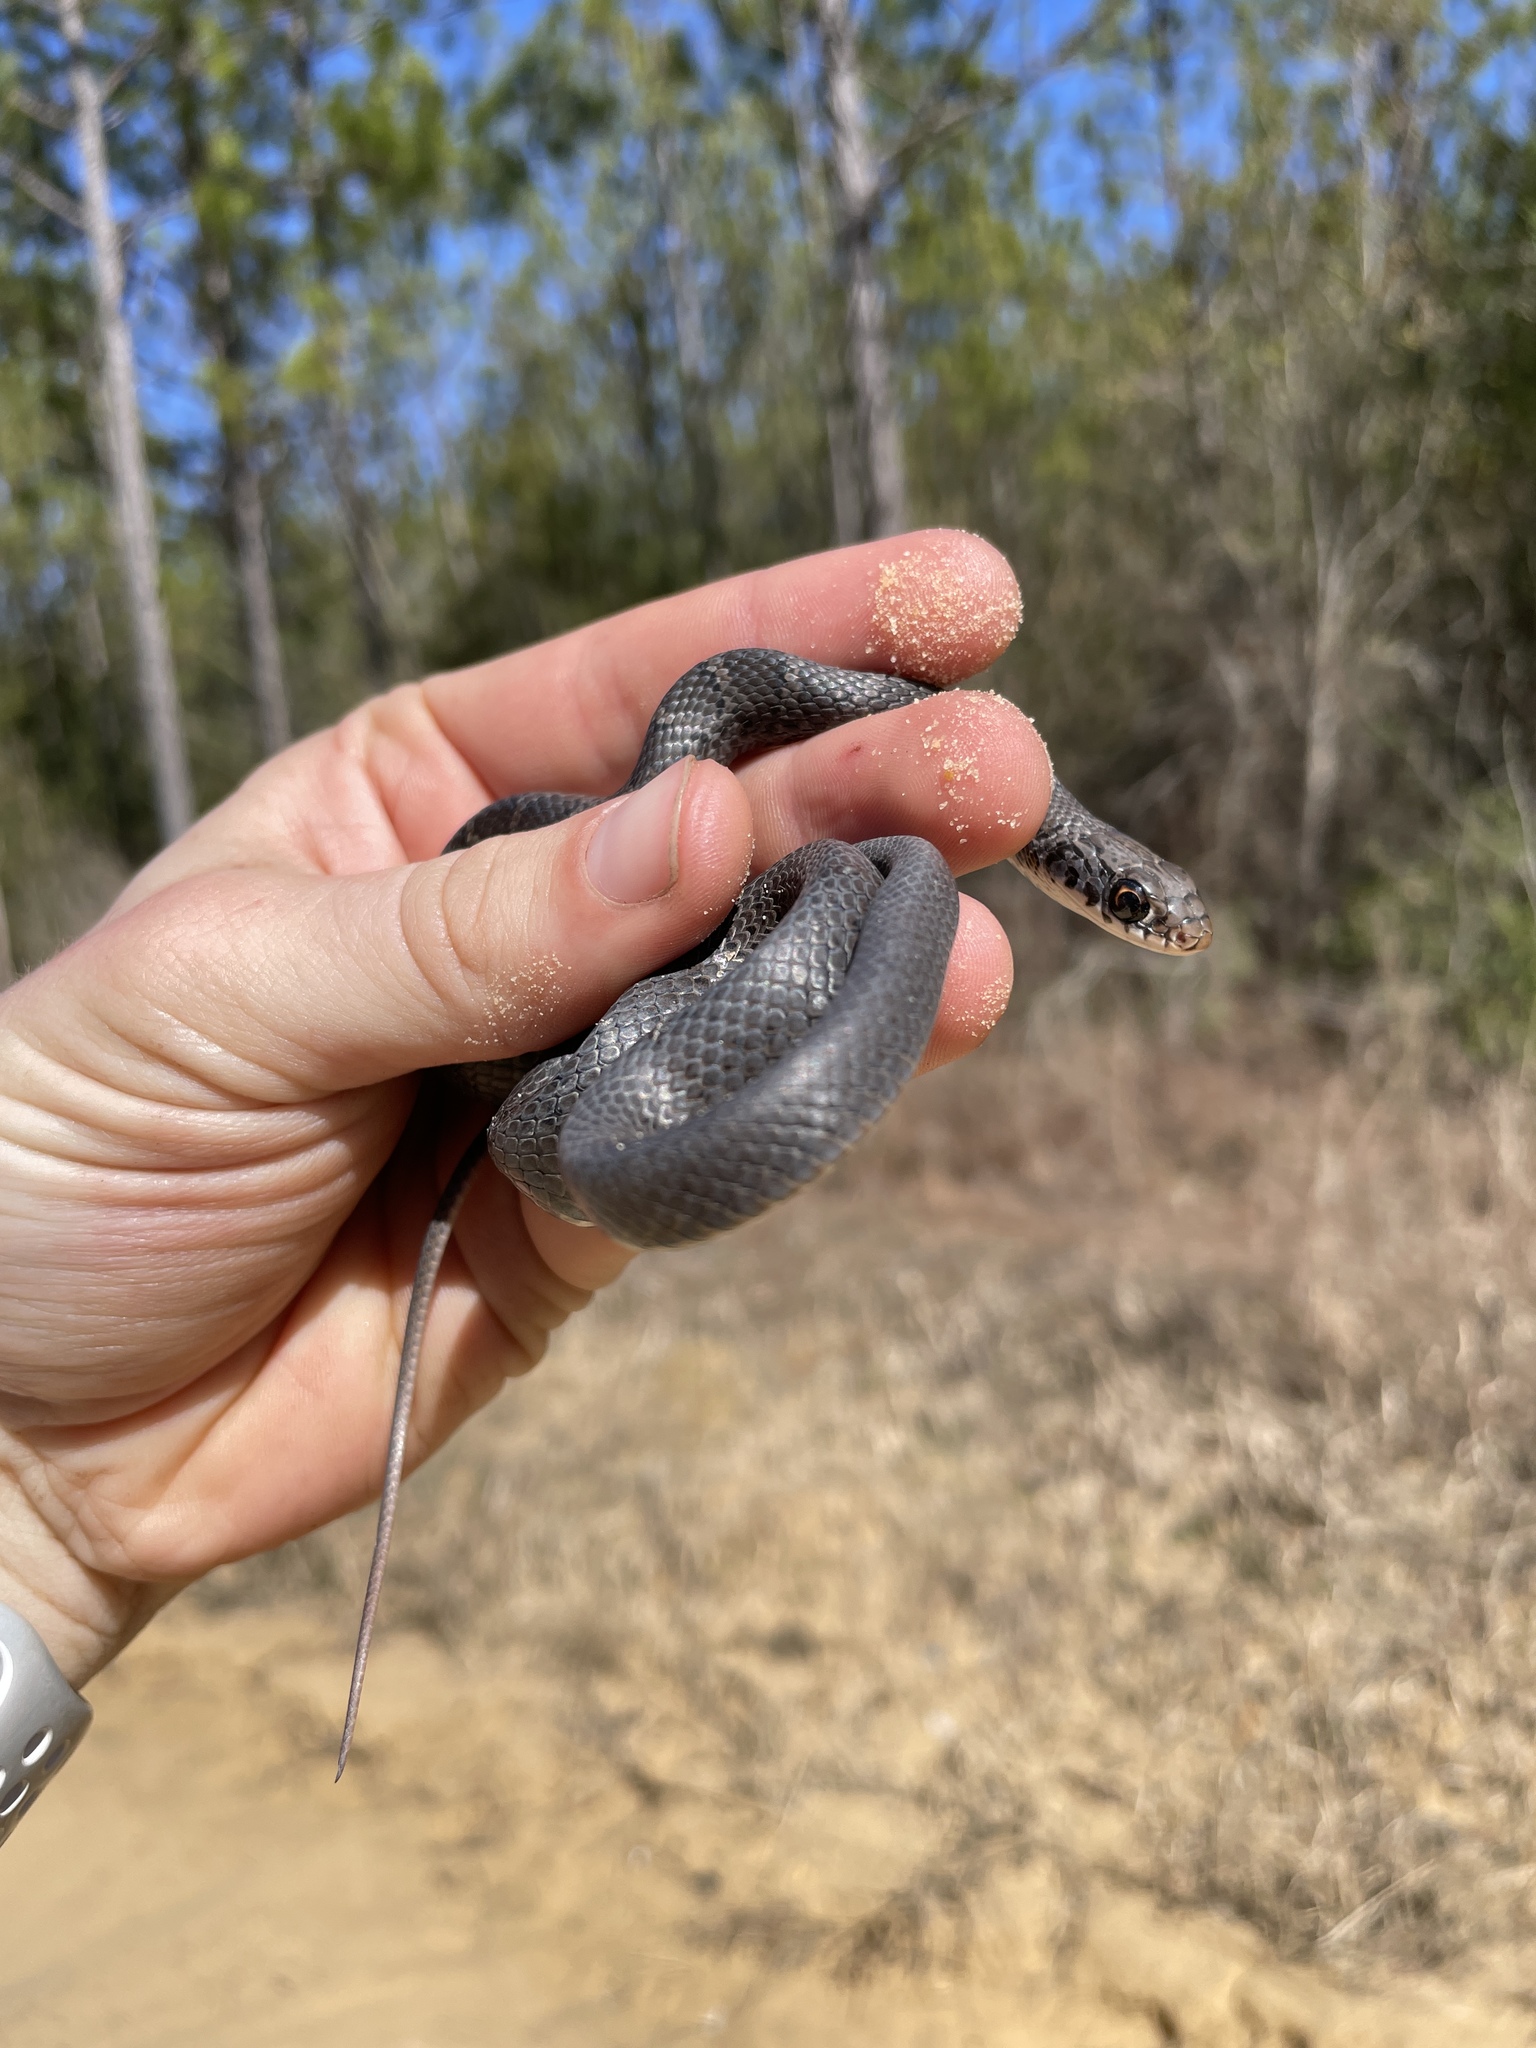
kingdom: Animalia
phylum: Chordata
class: Squamata
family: Colubridae
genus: Coluber
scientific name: Coluber constrictor
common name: Eastern racer
